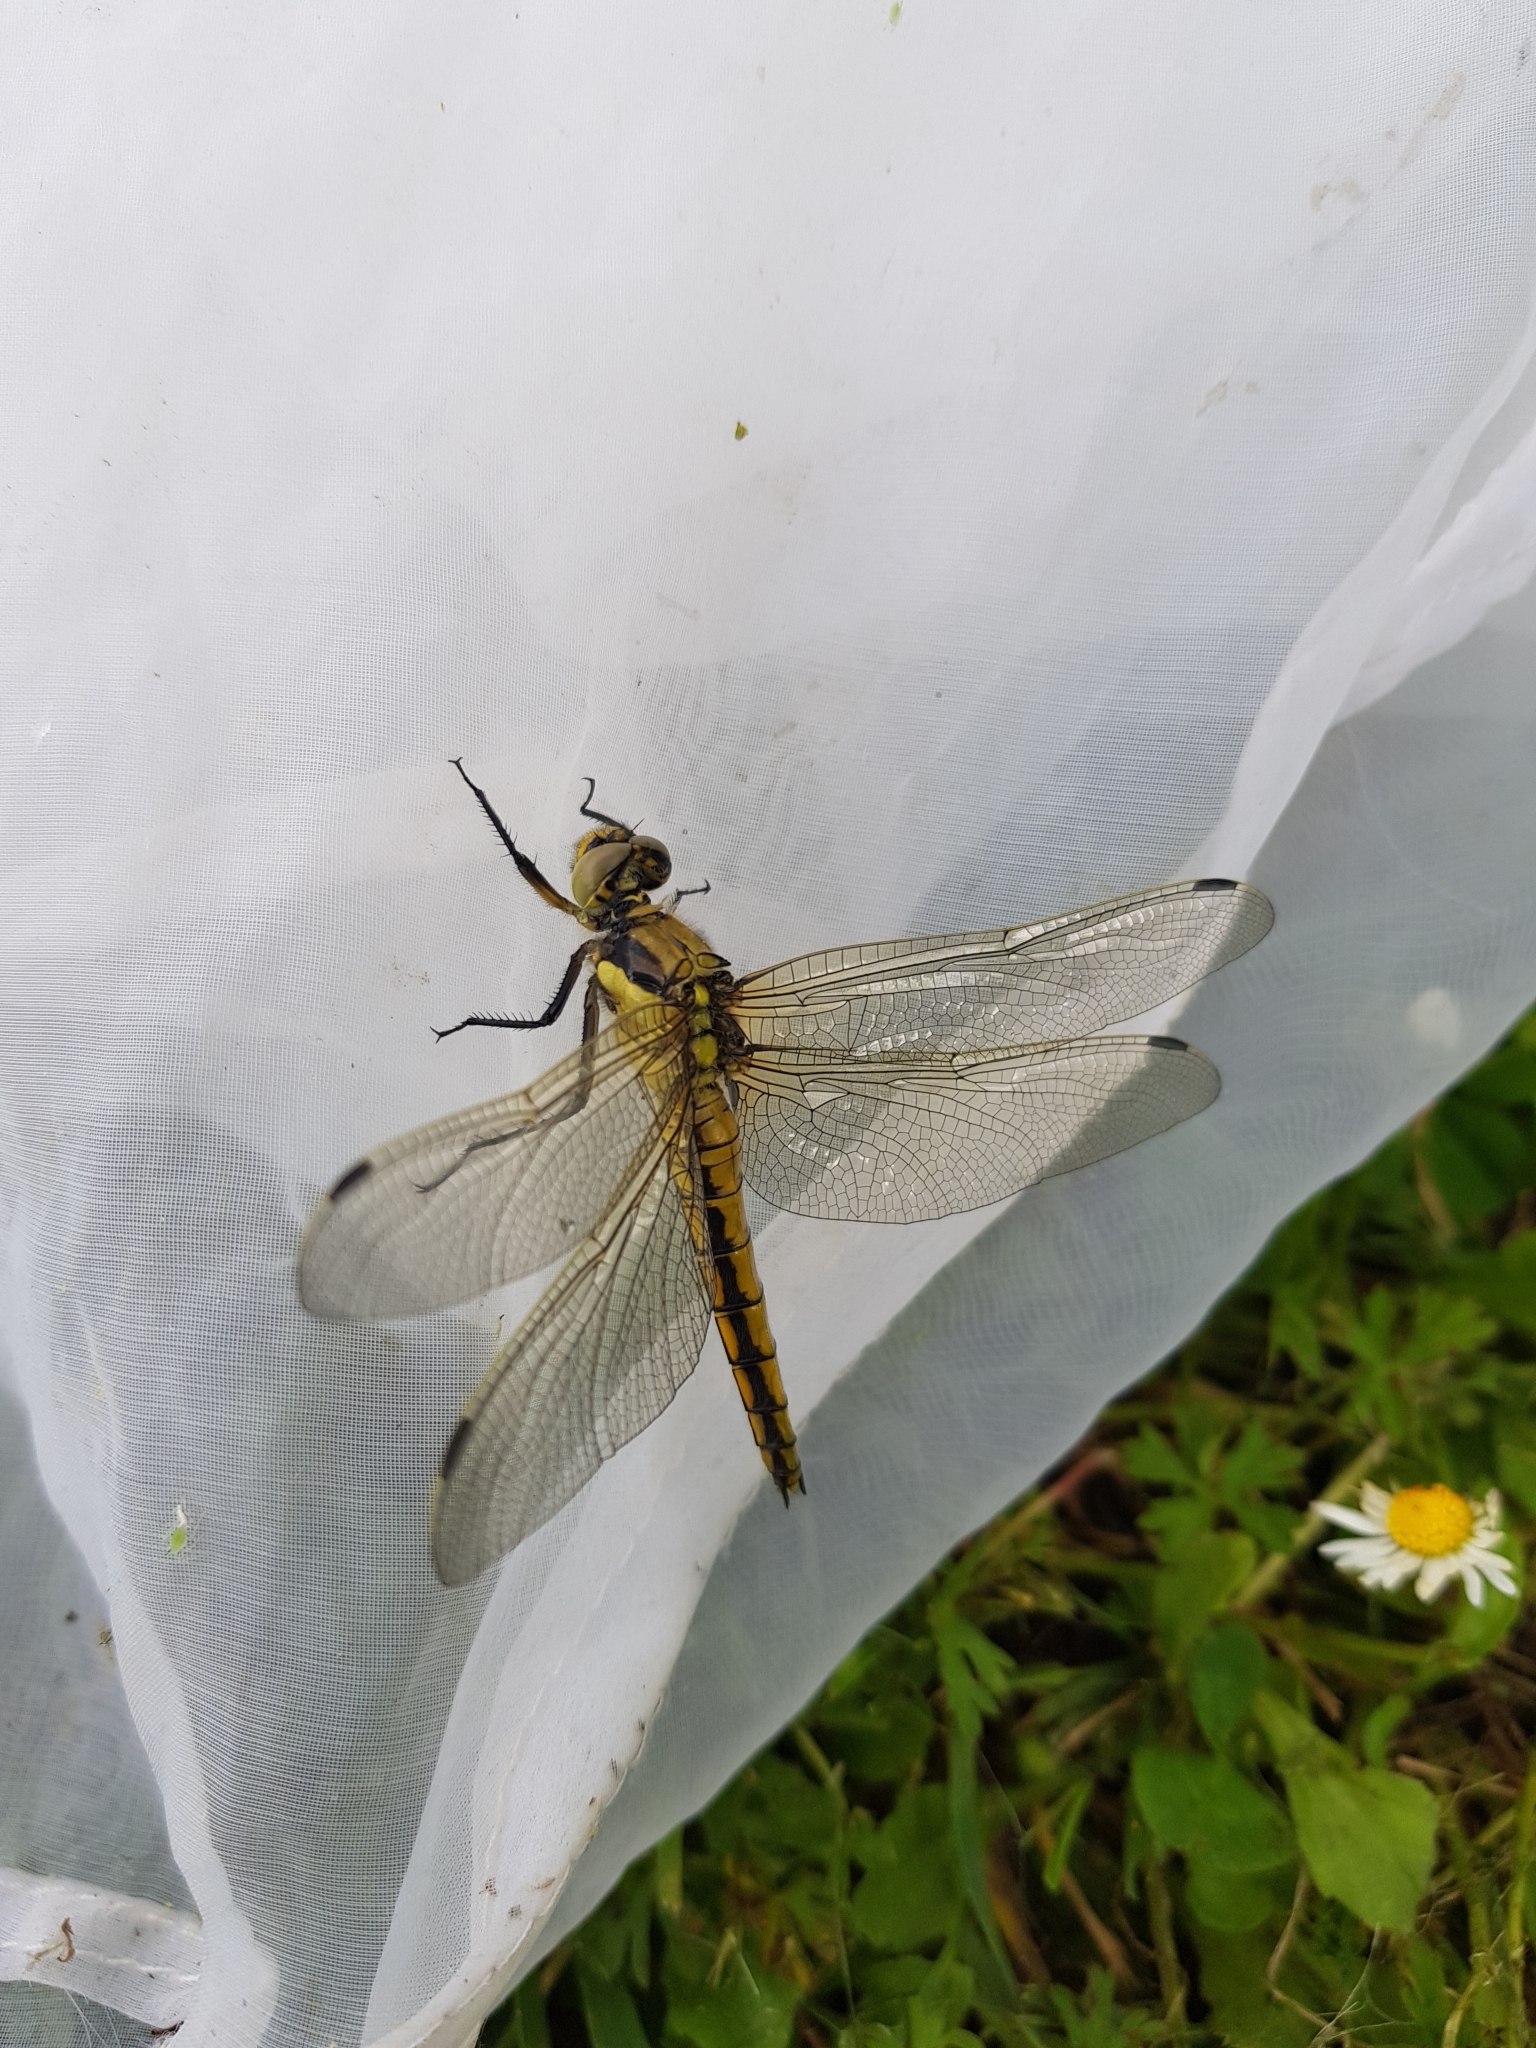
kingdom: Animalia
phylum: Arthropoda
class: Insecta
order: Odonata
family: Libellulidae
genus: Orthetrum
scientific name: Orthetrum cancellatum
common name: Black-tailed skimmer
